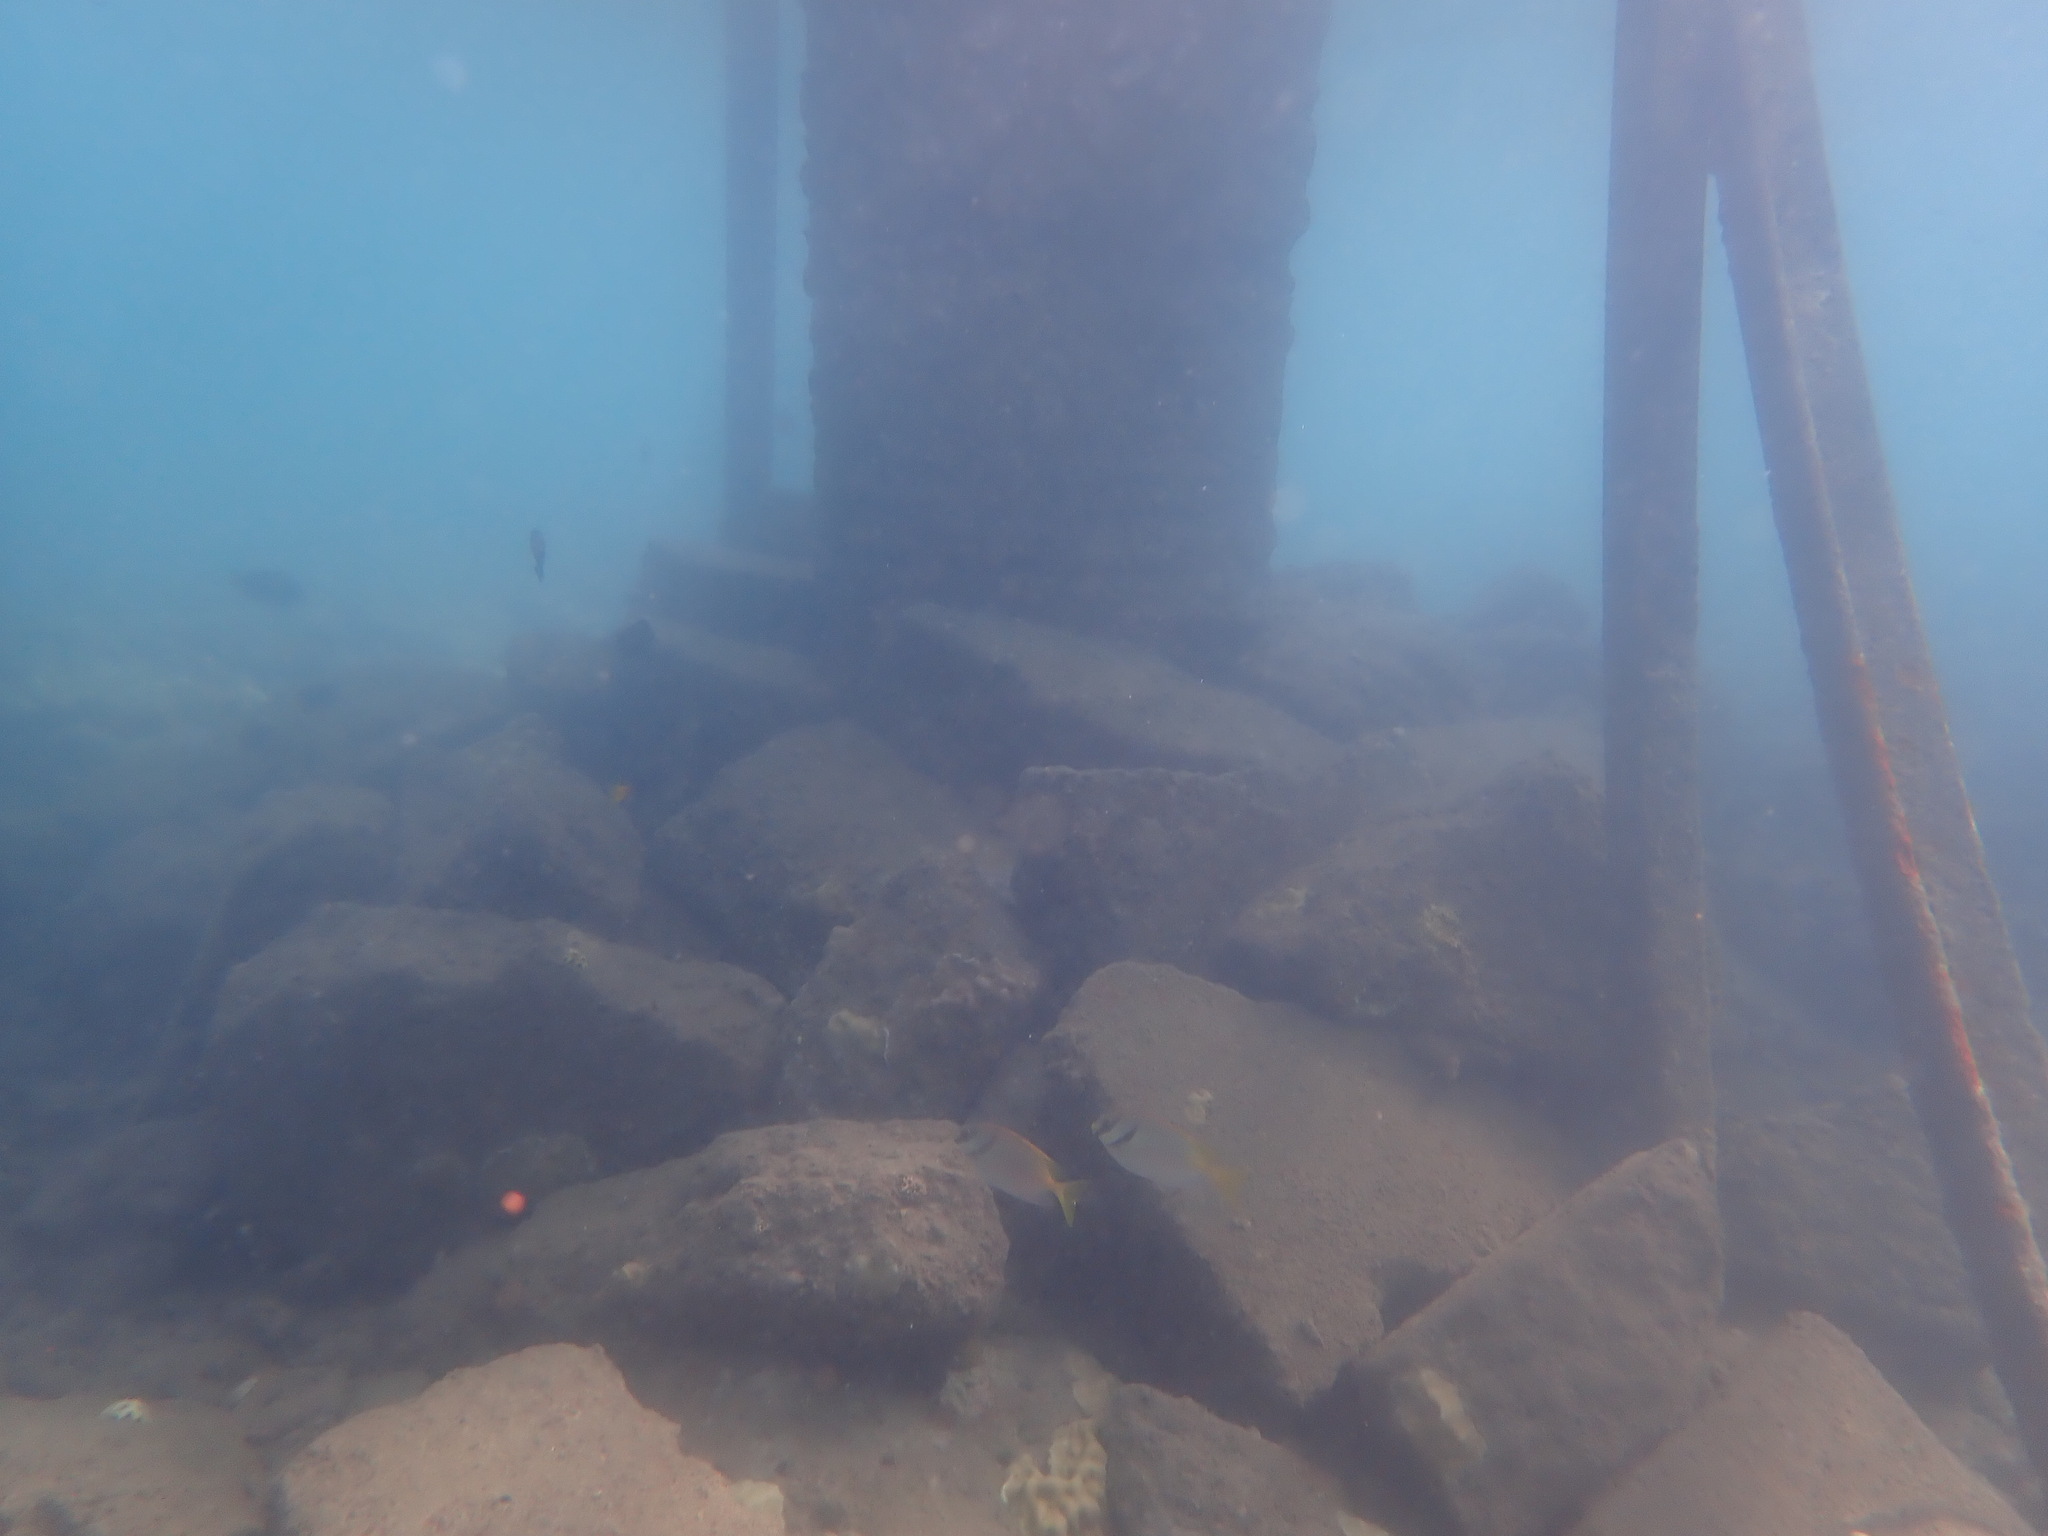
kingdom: Animalia
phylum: Chordata
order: Perciformes
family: Siganidae
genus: Siganus
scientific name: Siganus doliatus
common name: Barred spinefoot
